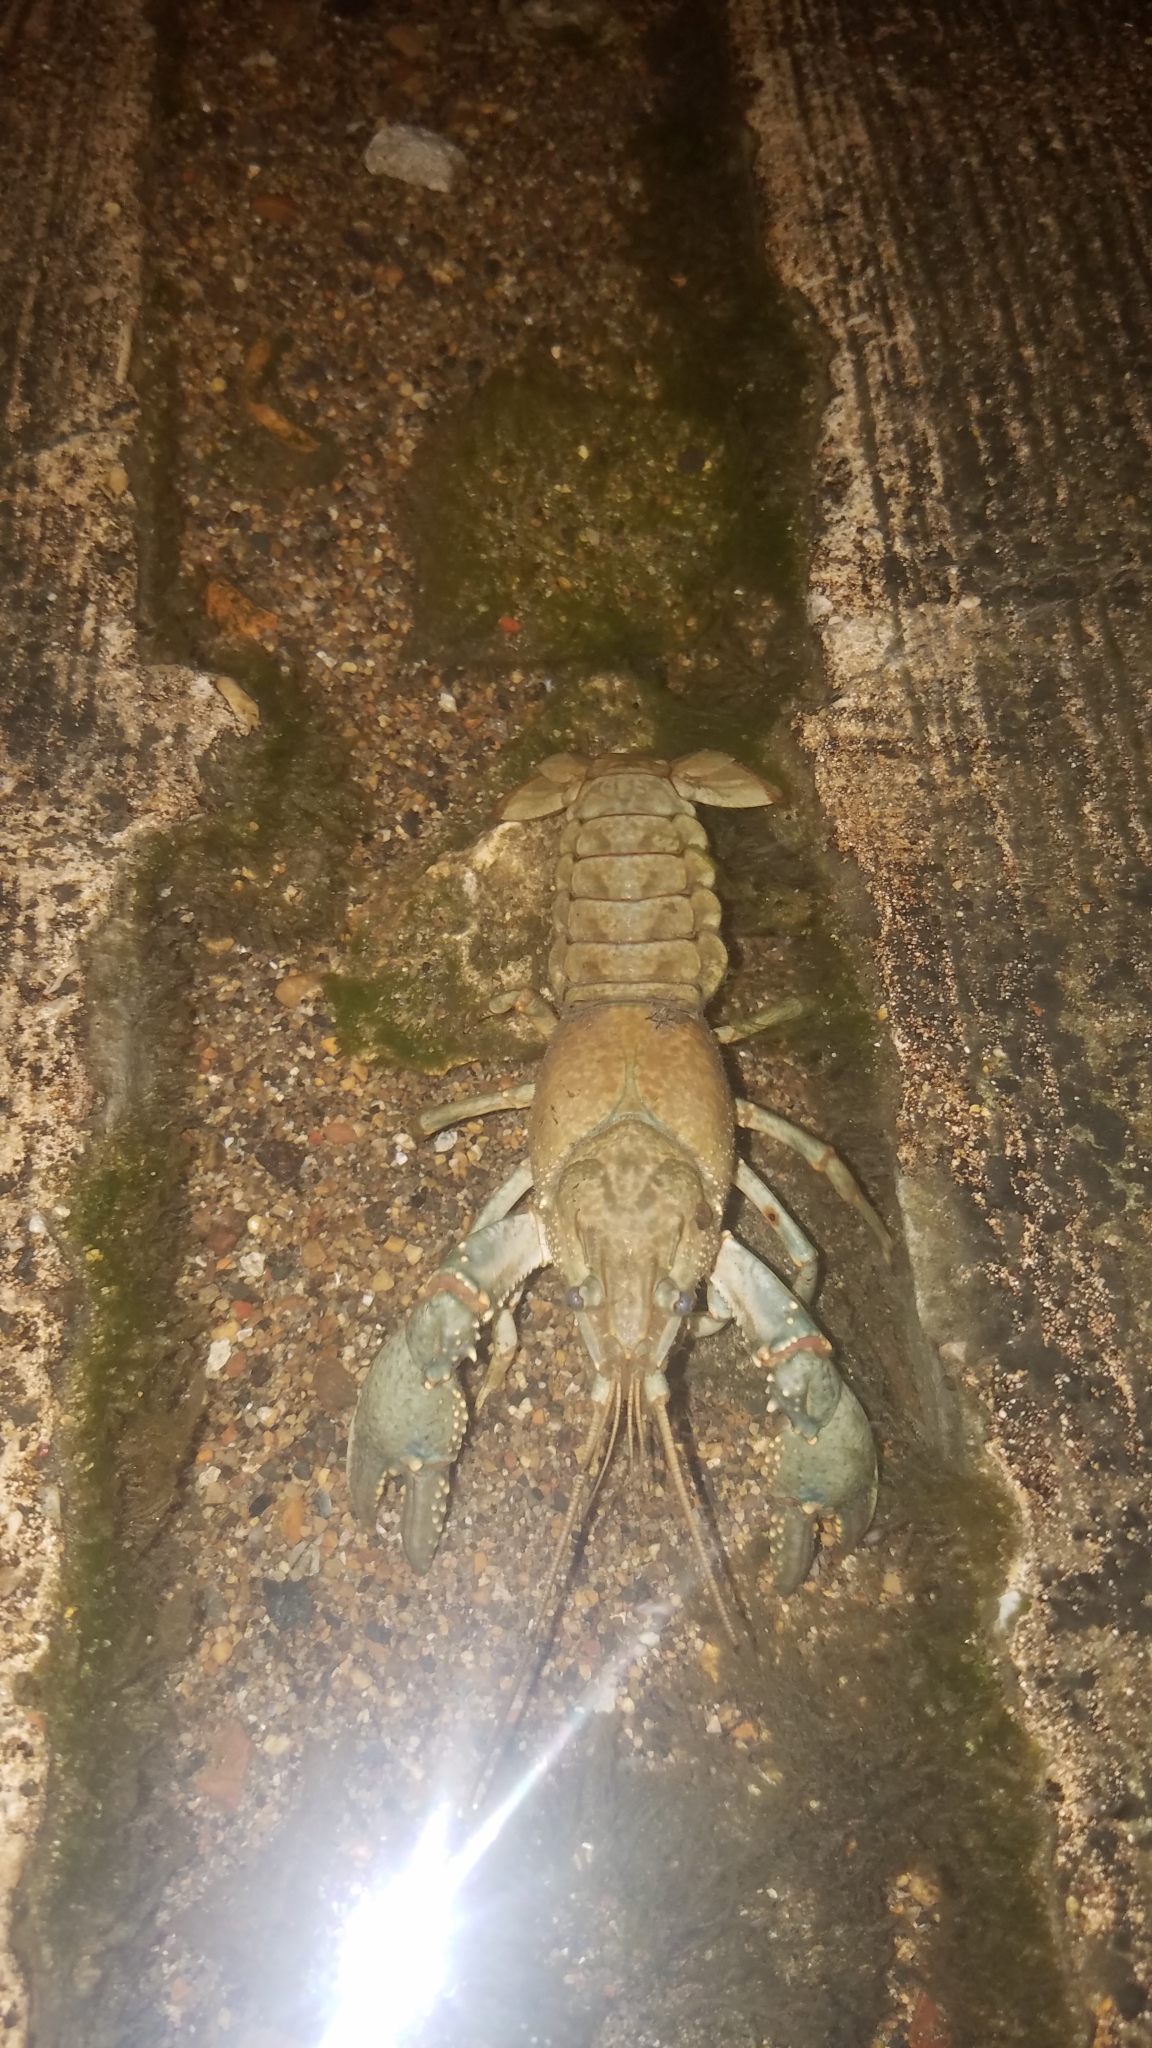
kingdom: Animalia
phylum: Arthropoda
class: Malacostraca
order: Decapoda
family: Cambaridae
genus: Faxonius
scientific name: Faxonius virilis
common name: Virile crayfish
